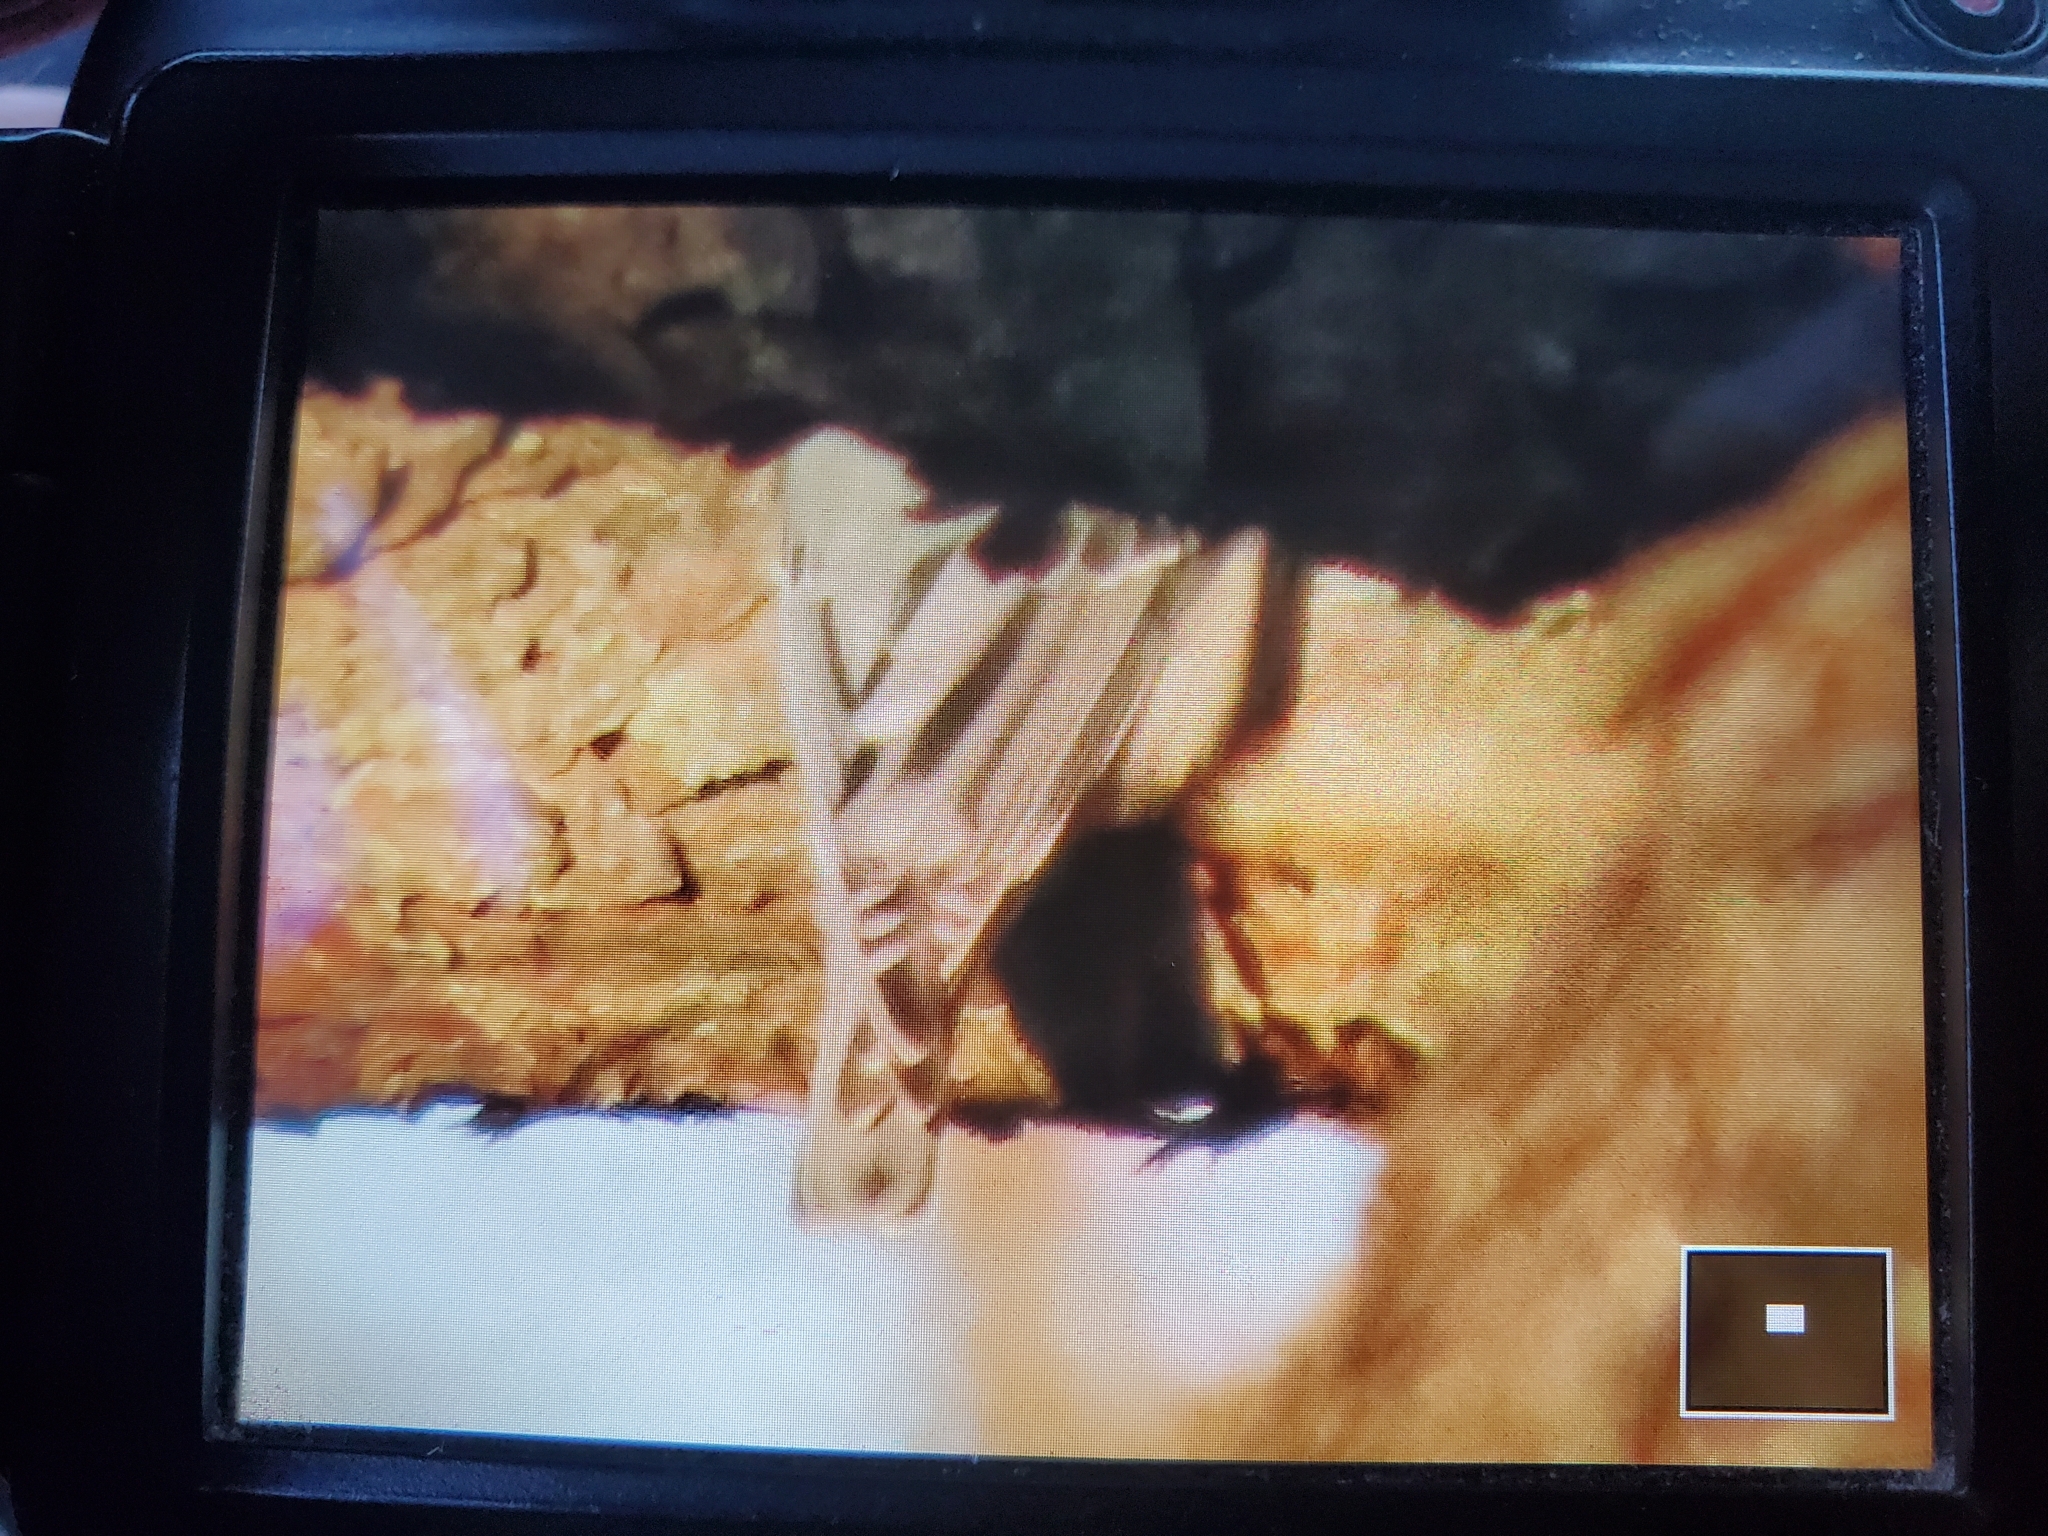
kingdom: Animalia
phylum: Chordata
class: Aves
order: Passeriformes
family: Sittidae
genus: Sitta
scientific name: Sitta carolinensis
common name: White-breasted nuthatch
